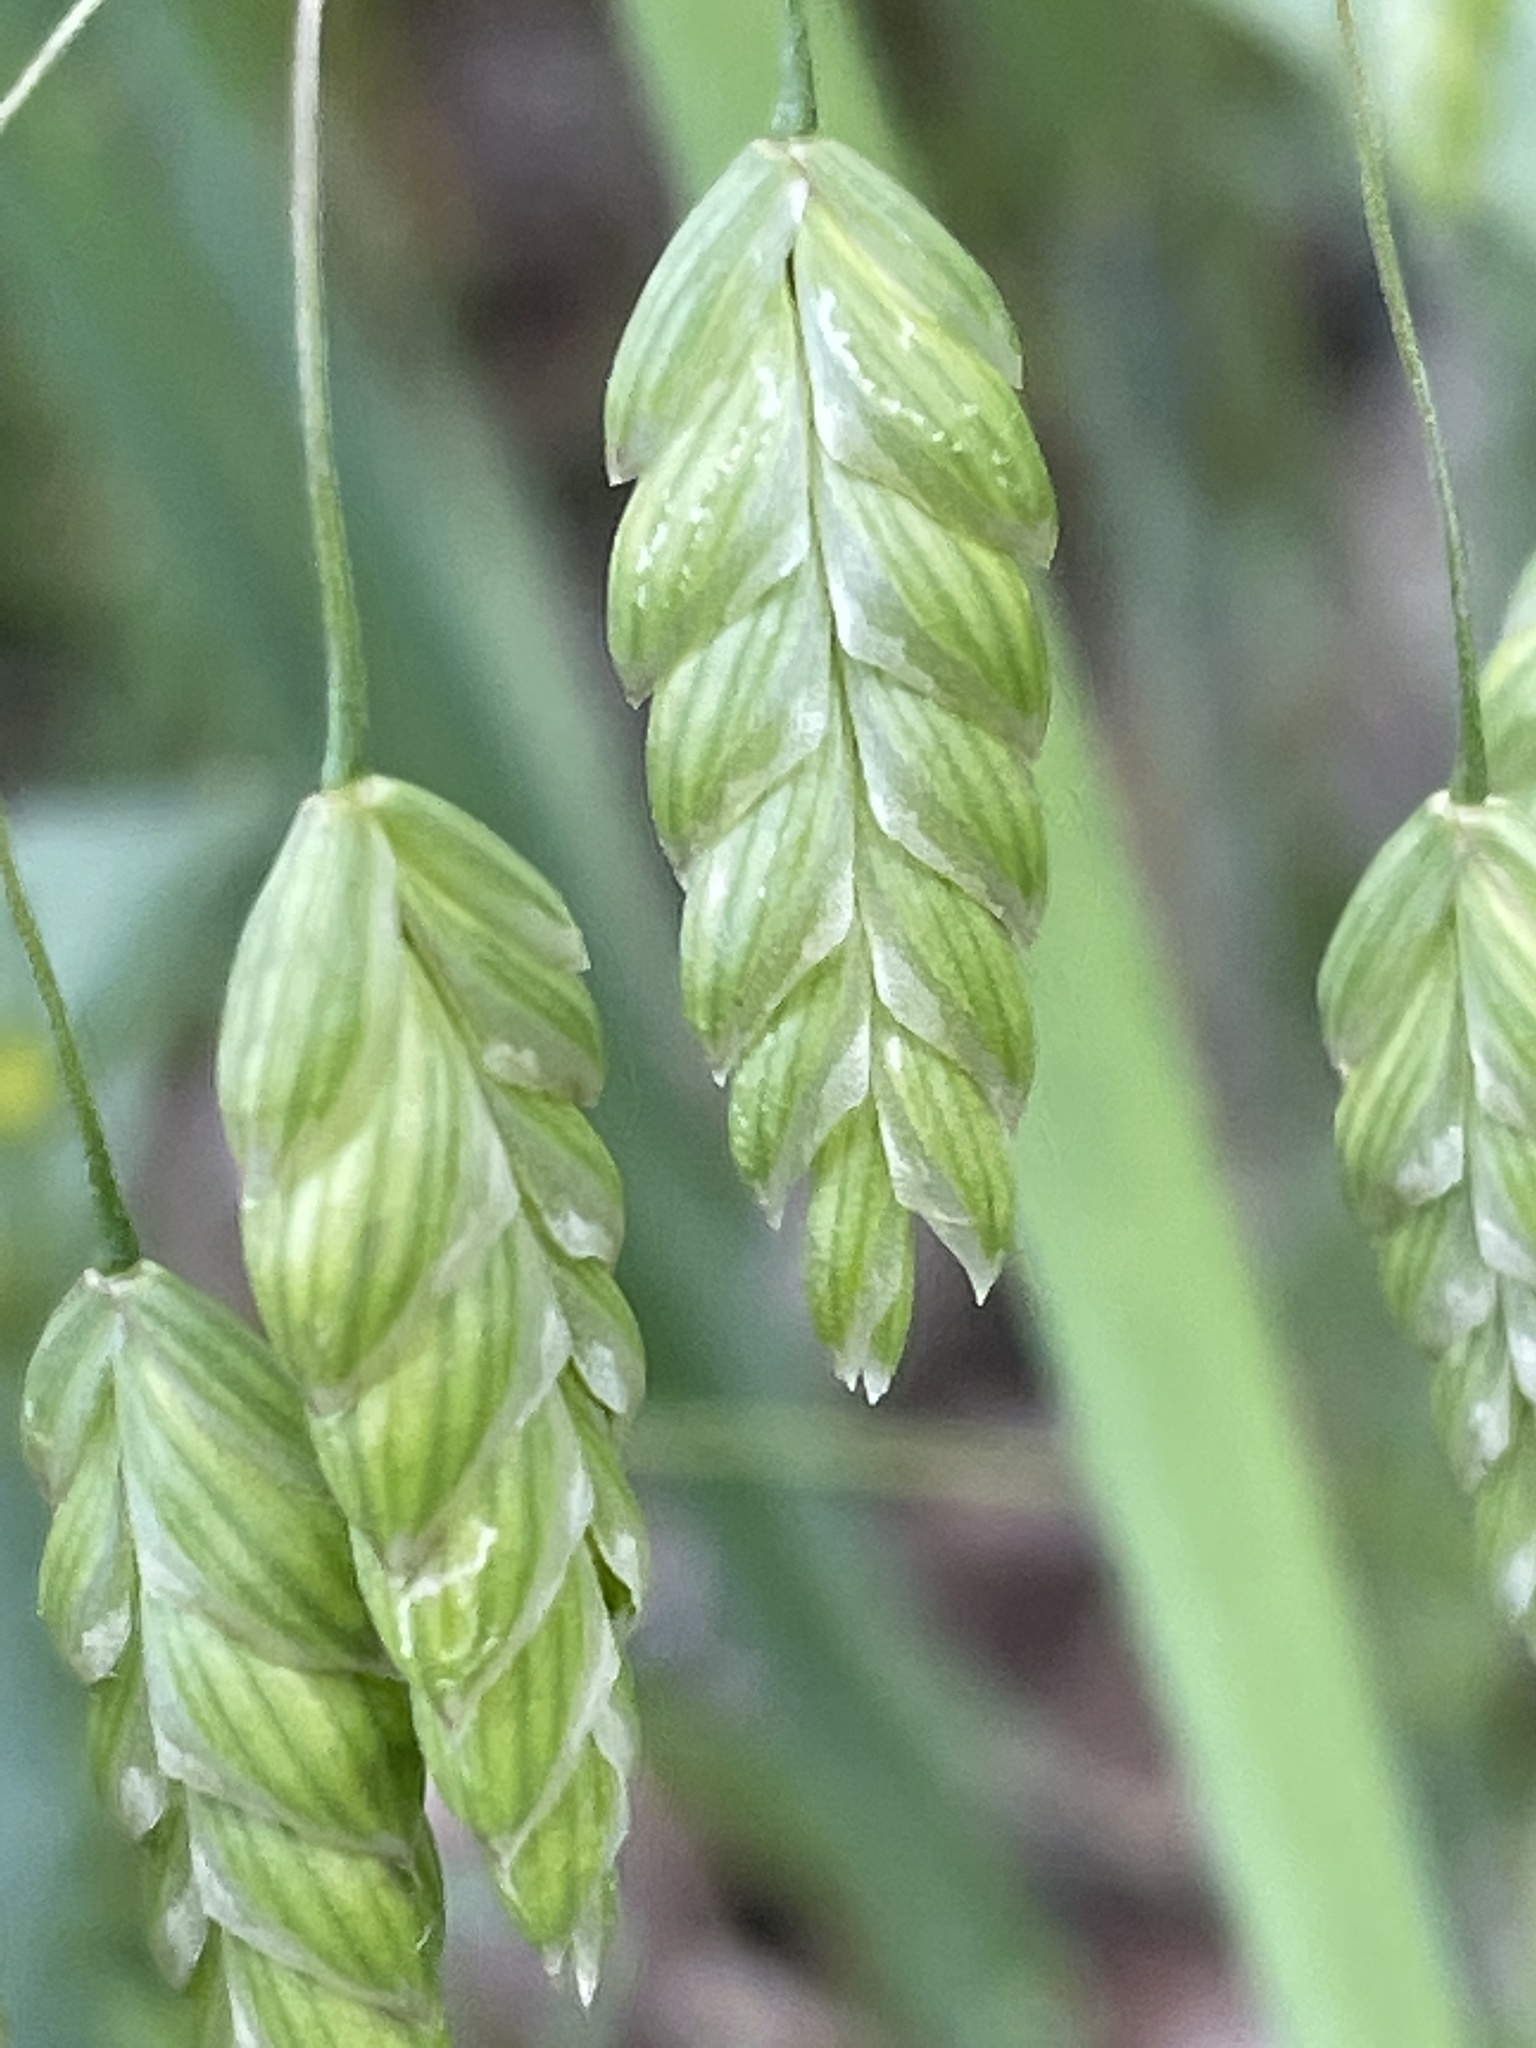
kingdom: Plantae
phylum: Tracheophyta
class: Liliopsida
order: Poales
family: Poaceae
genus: Bromus
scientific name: Bromus briziformis
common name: Rattlesnake brome
